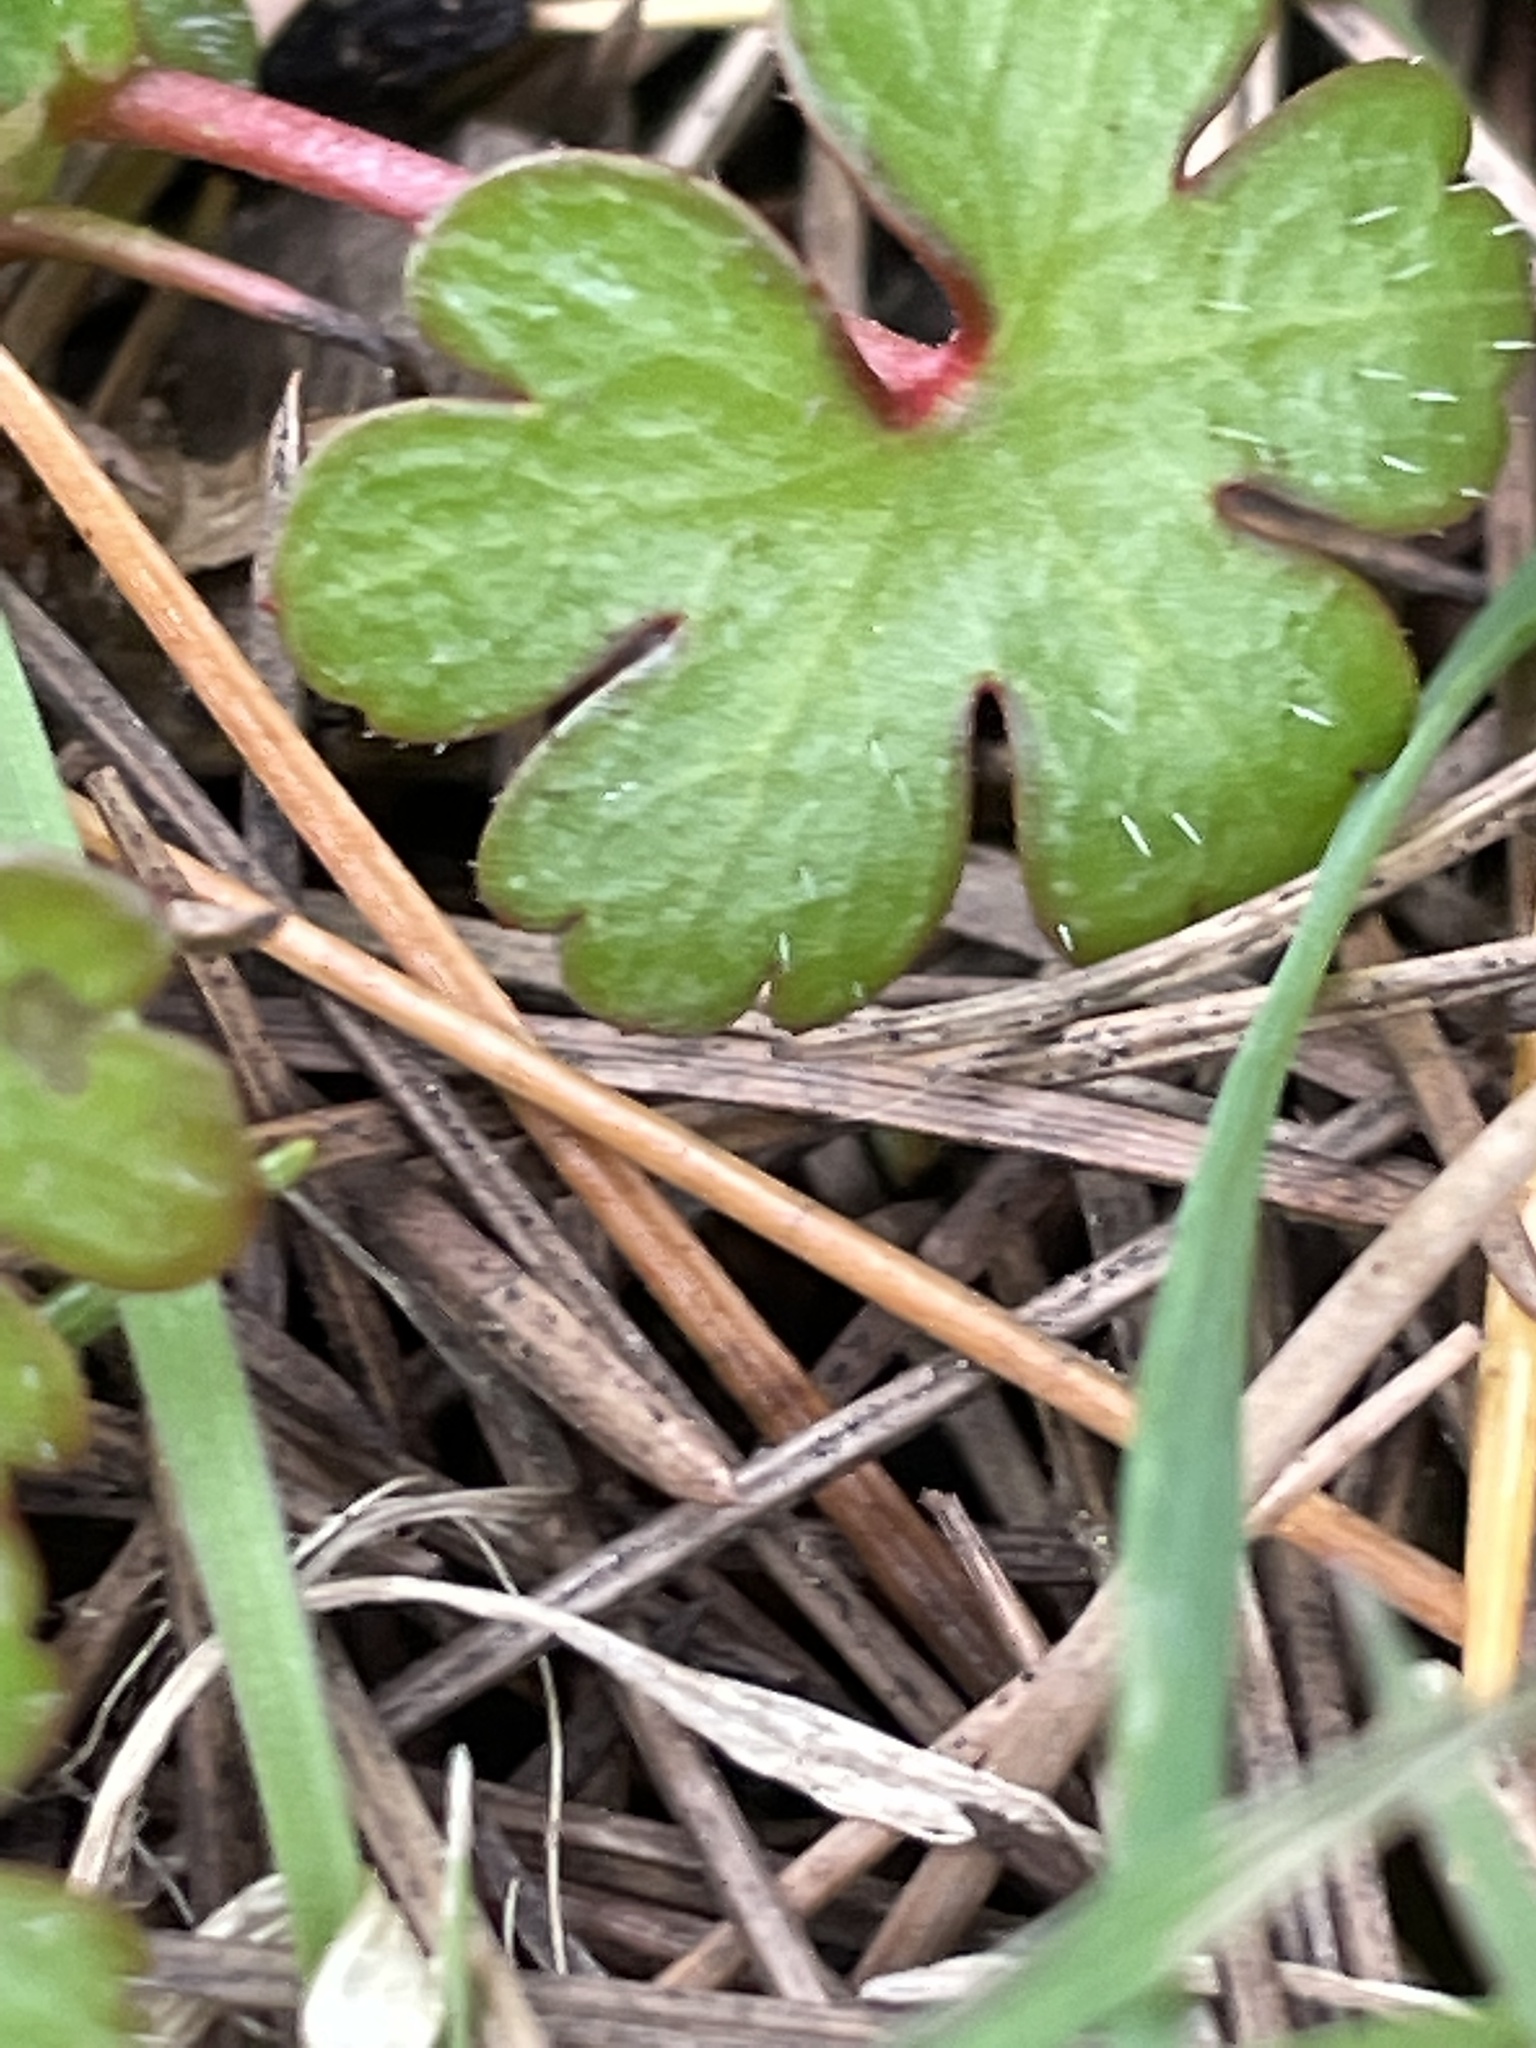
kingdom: Plantae
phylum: Tracheophyta
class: Magnoliopsida
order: Geraniales
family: Geraniaceae
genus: Geranium
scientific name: Geranium lucidum
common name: Shining crane's-bill
